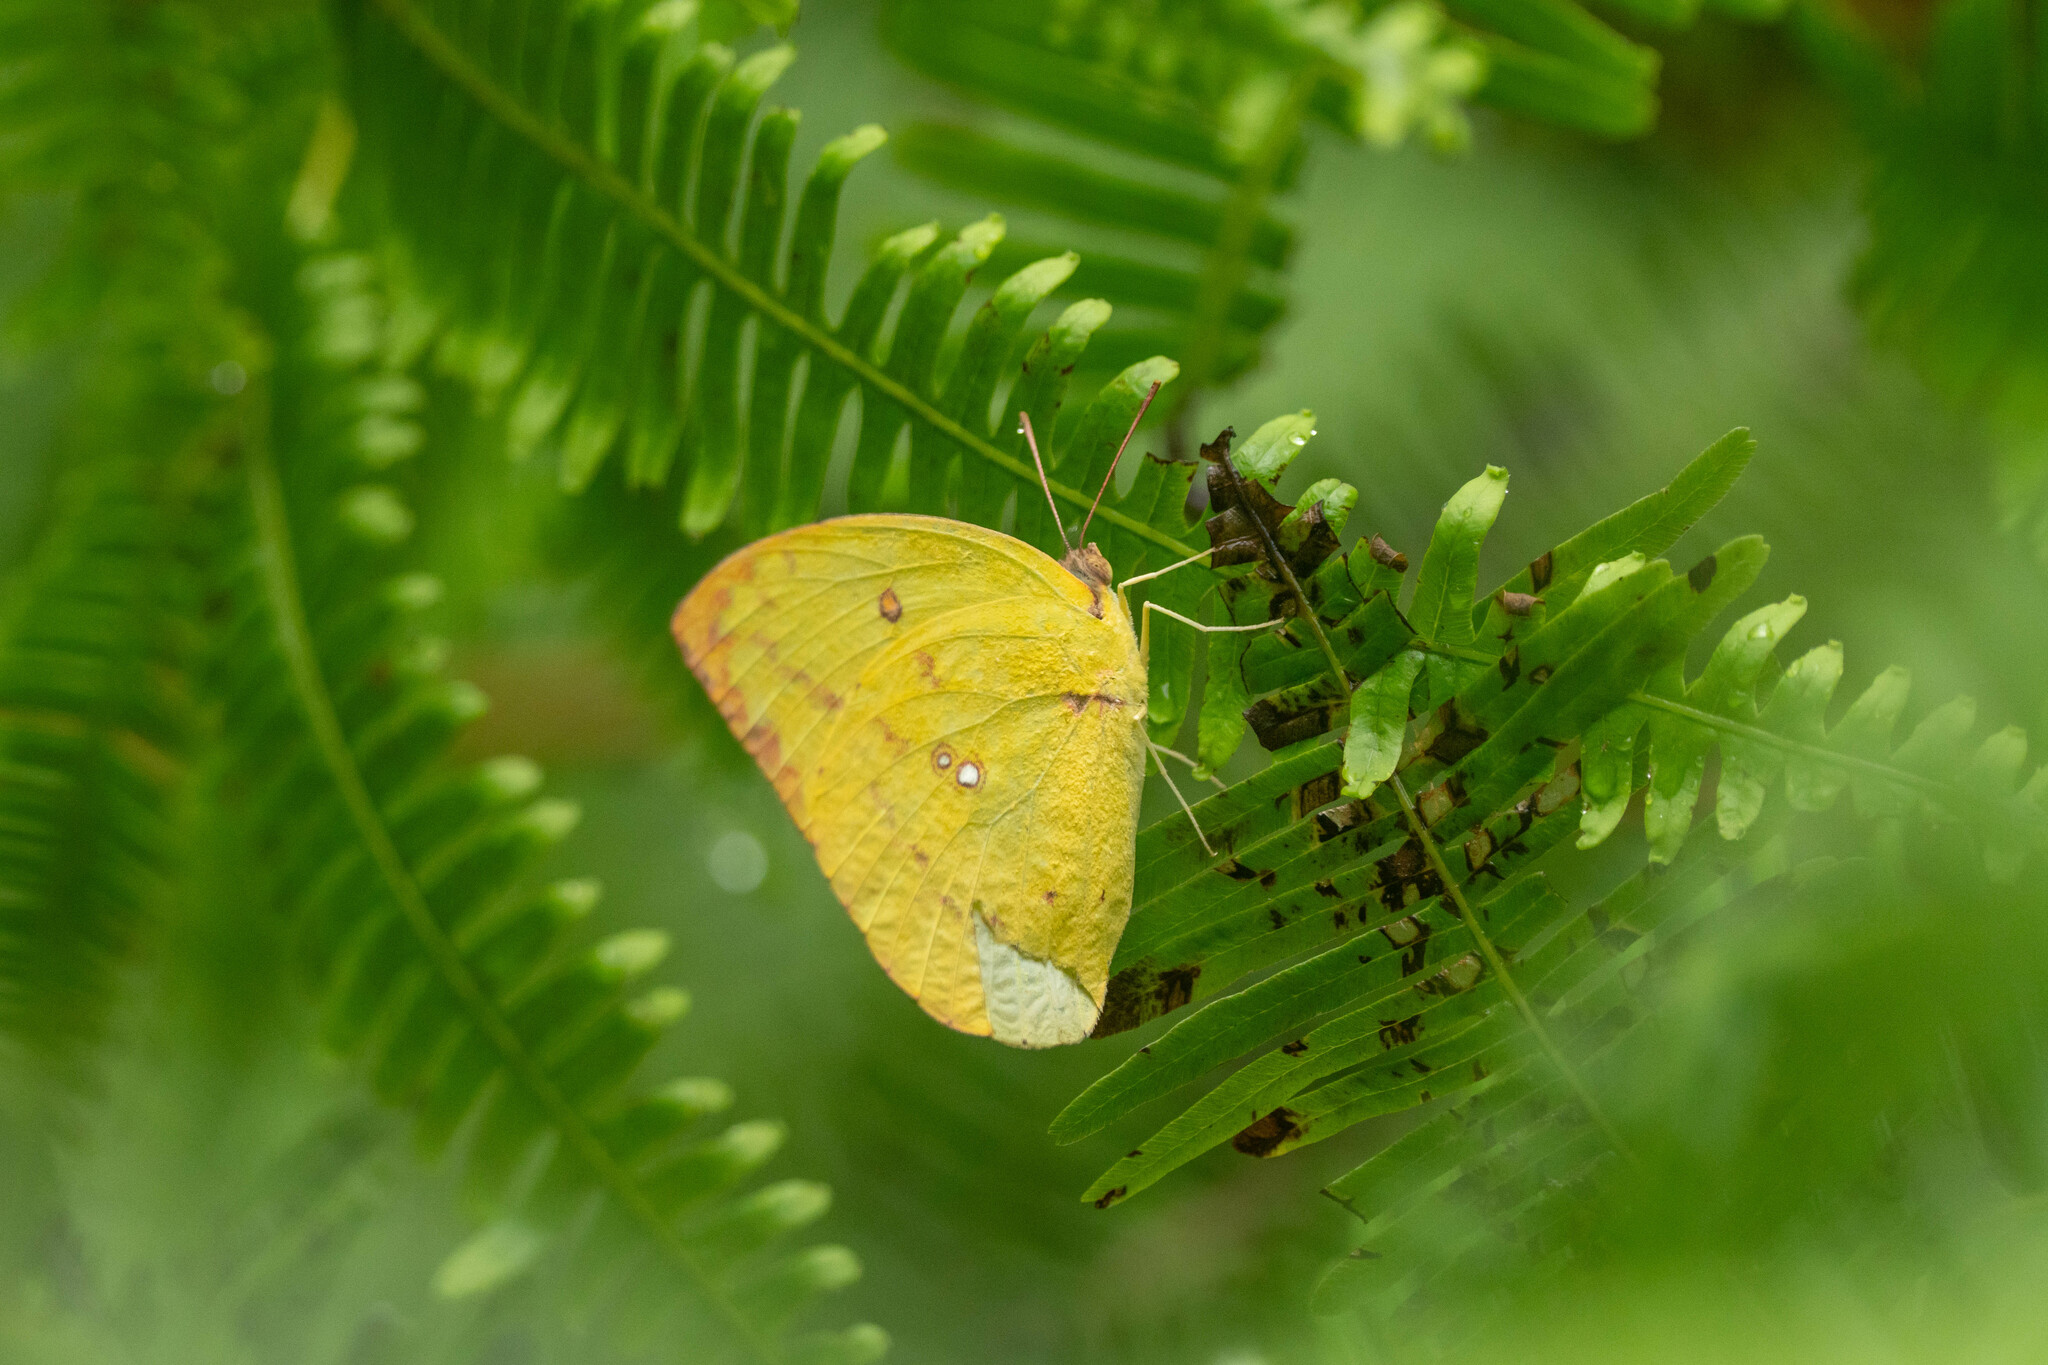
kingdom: Animalia
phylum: Arthropoda
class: Insecta
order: Lepidoptera
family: Pieridae
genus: Catopsilia
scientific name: Catopsilia pomona
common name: Common emigrant
